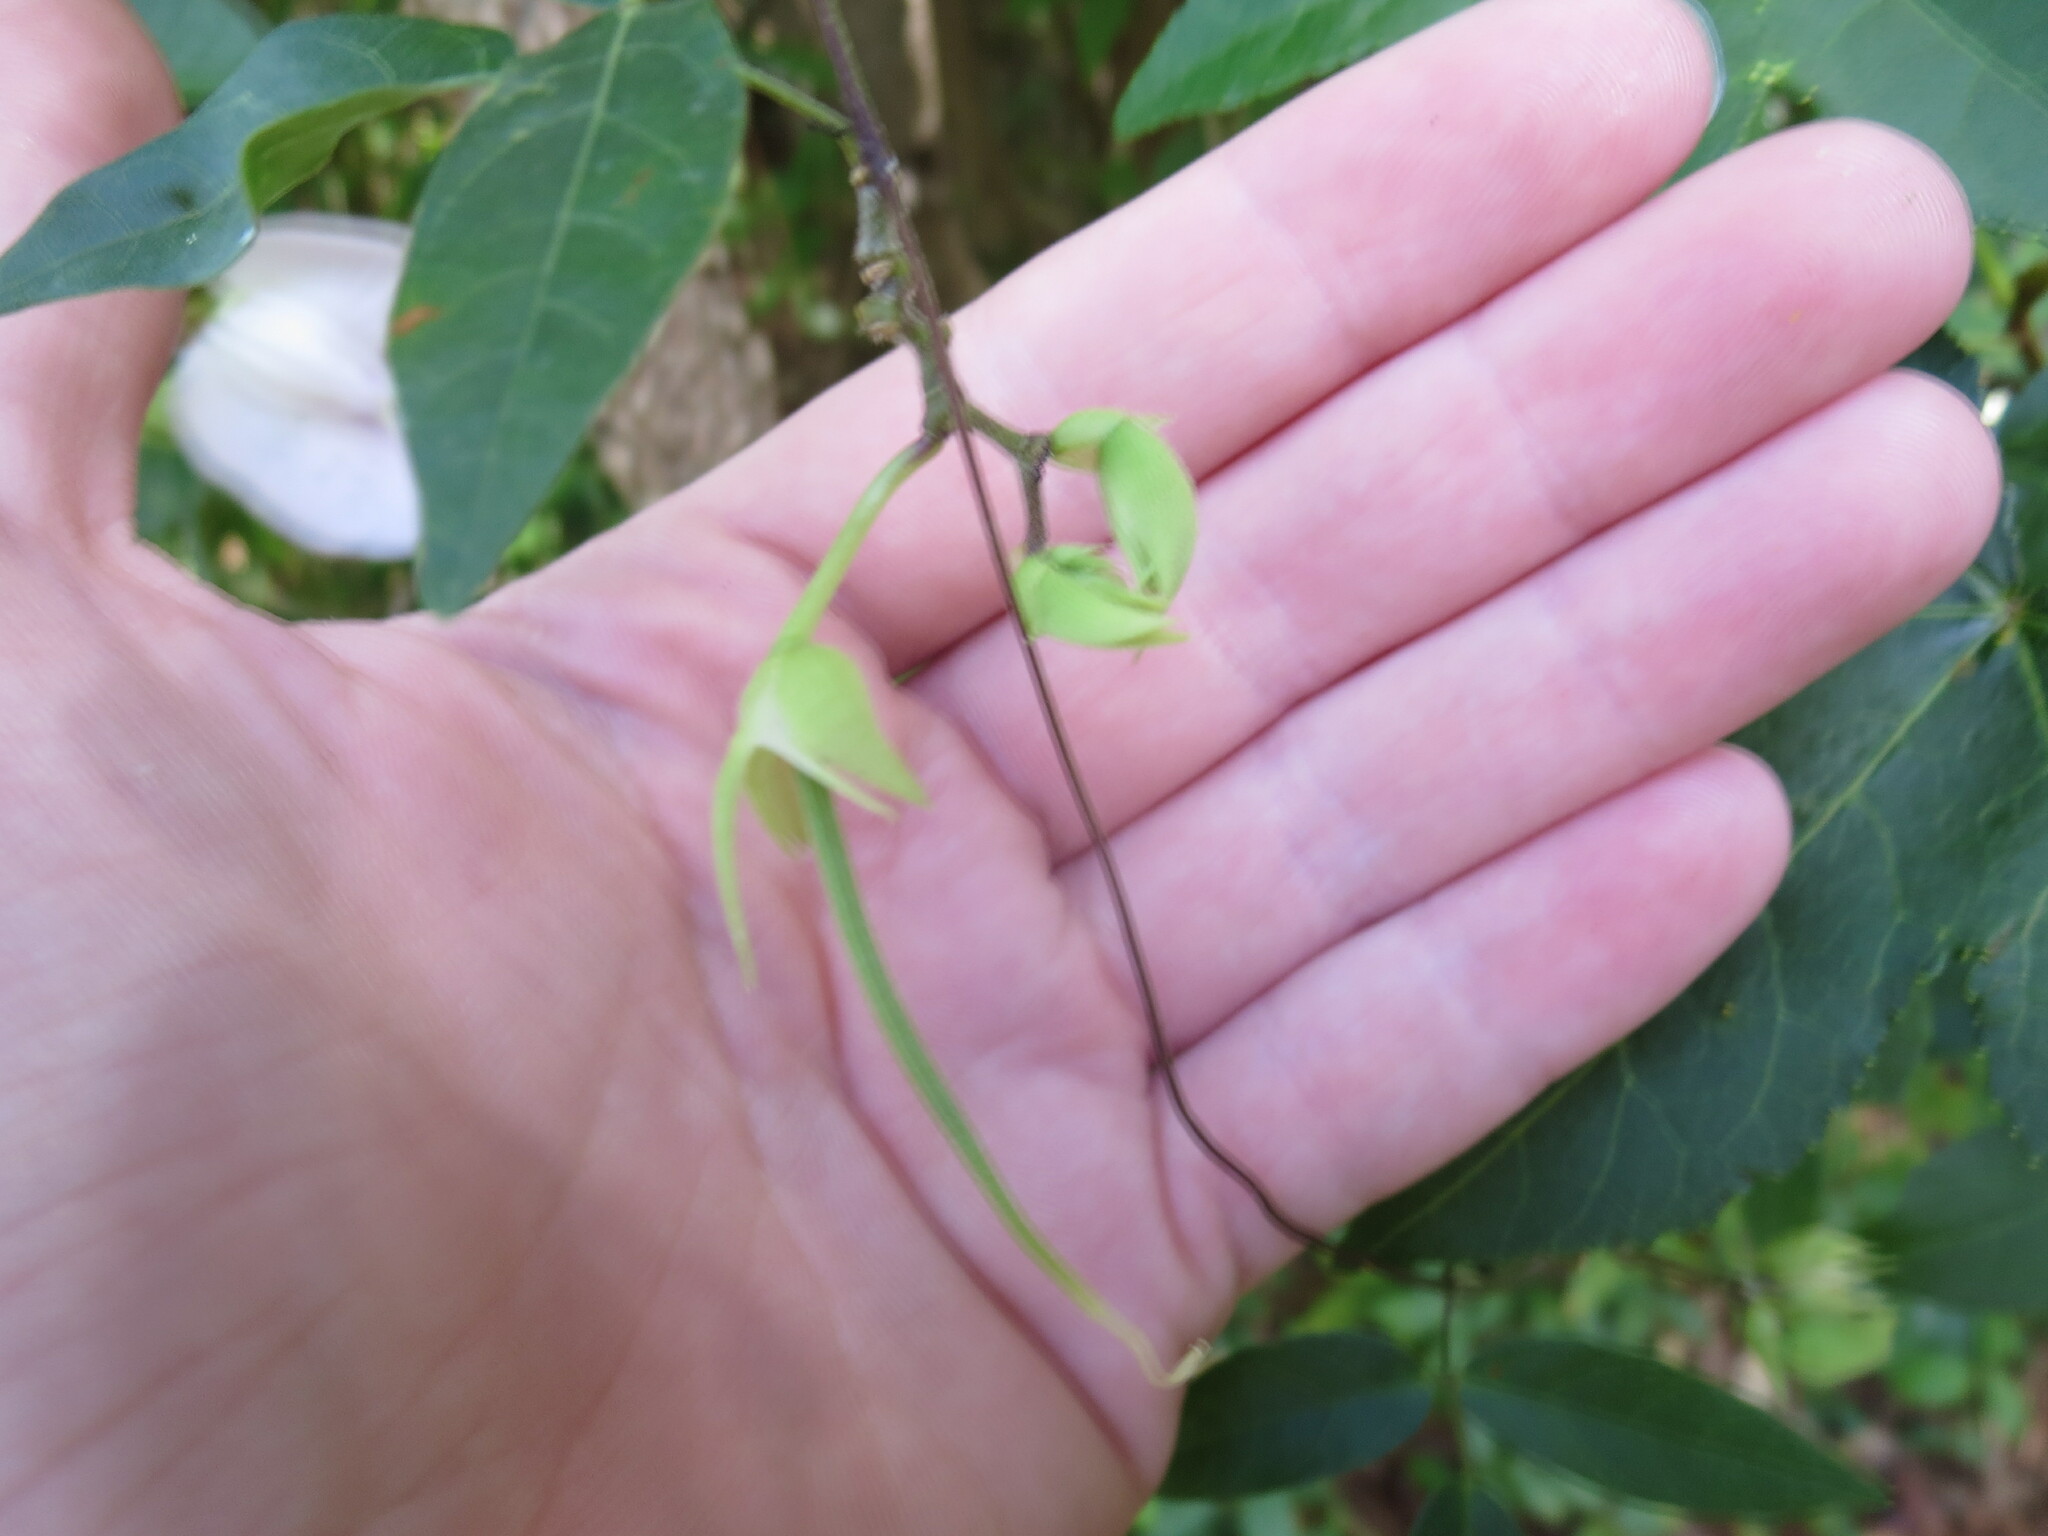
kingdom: Plantae
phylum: Tracheophyta
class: Magnoliopsida
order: Fabales
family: Fabaceae
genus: Centrosema
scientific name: Centrosema virginianum
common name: Butterfly-pea
